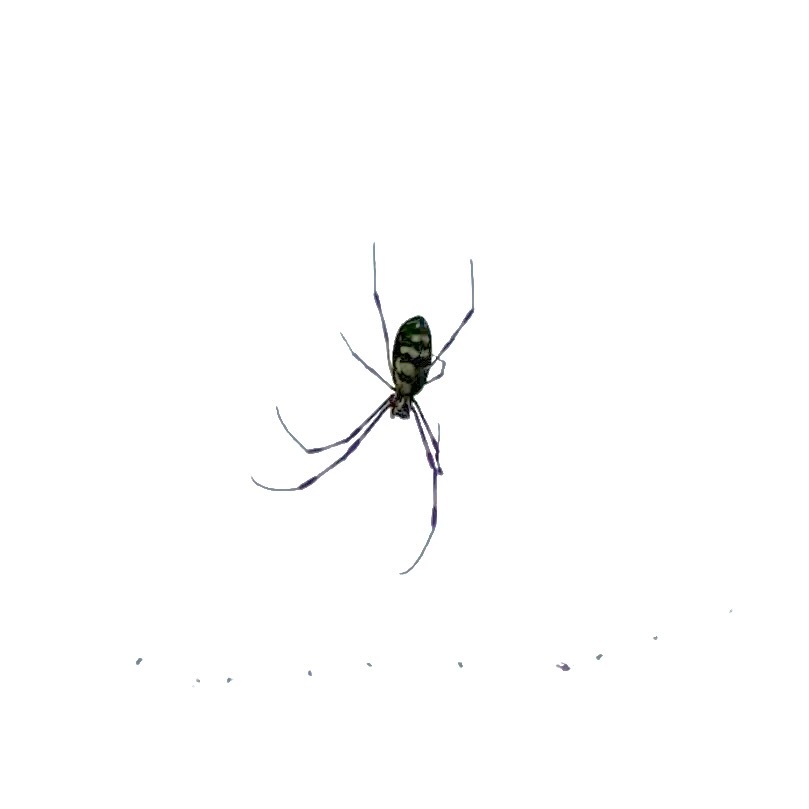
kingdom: Animalia
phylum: Arthropoda
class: Arachnida
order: Araneae
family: Araneidae
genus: Trichonephila
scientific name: Trichonephila clavata
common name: Jorō spider
